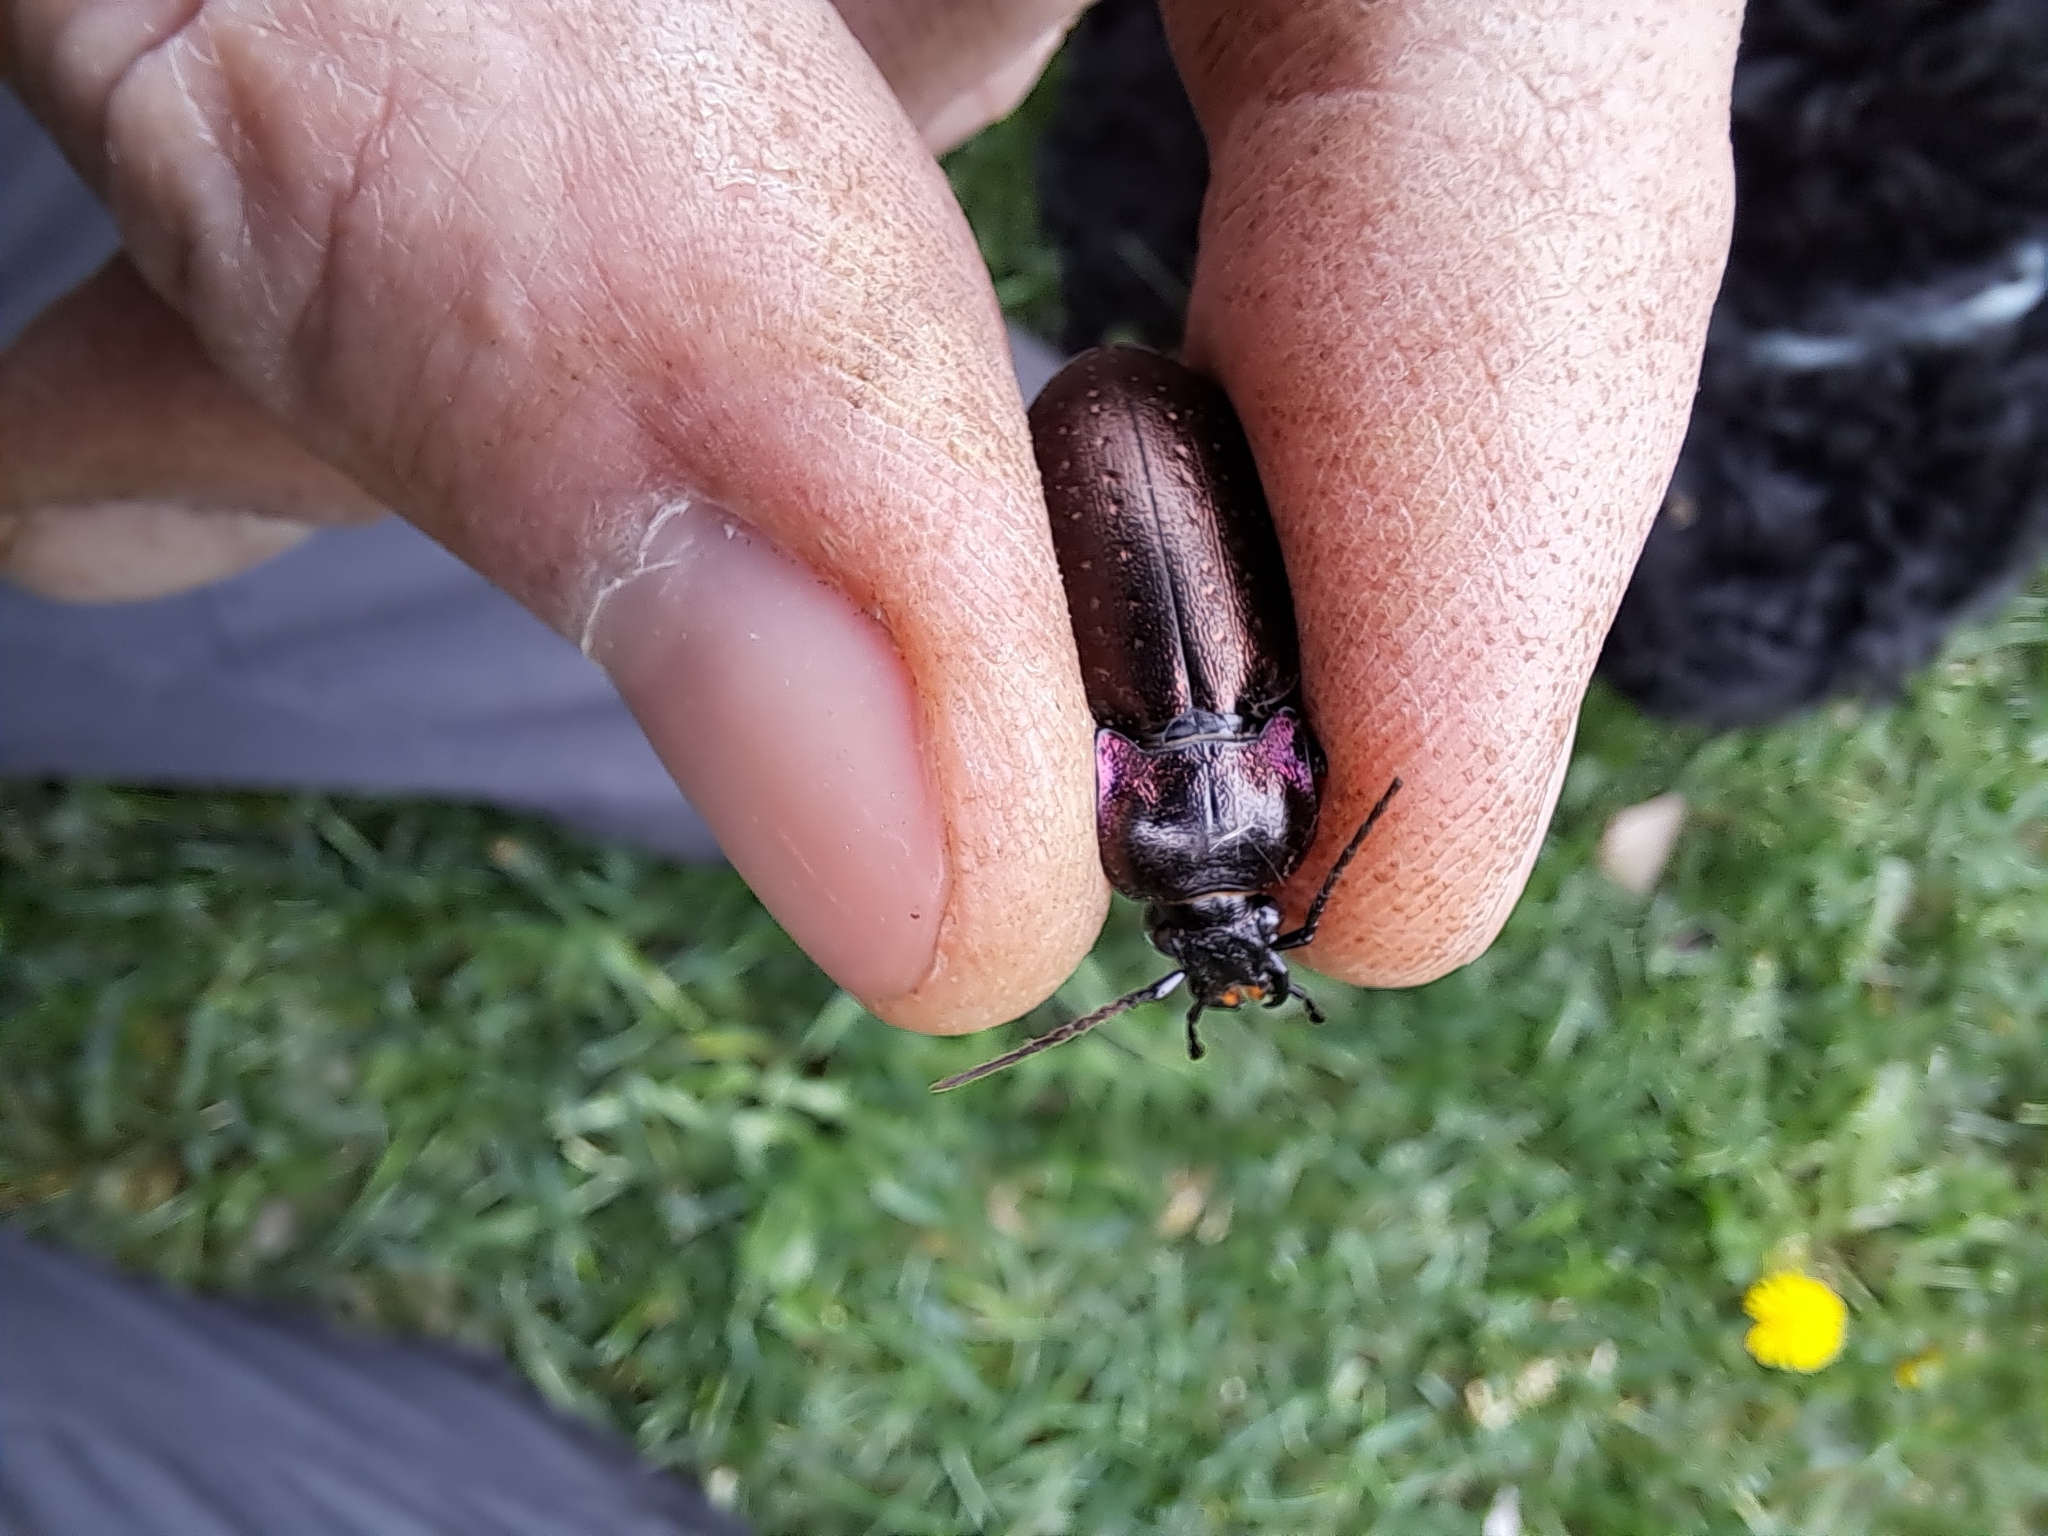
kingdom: Animalia
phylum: Arthropoda
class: Insecta
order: Coleoptera
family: Carabidae
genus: Carabus
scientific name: Carabus nemoralis
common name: European ground beetle
